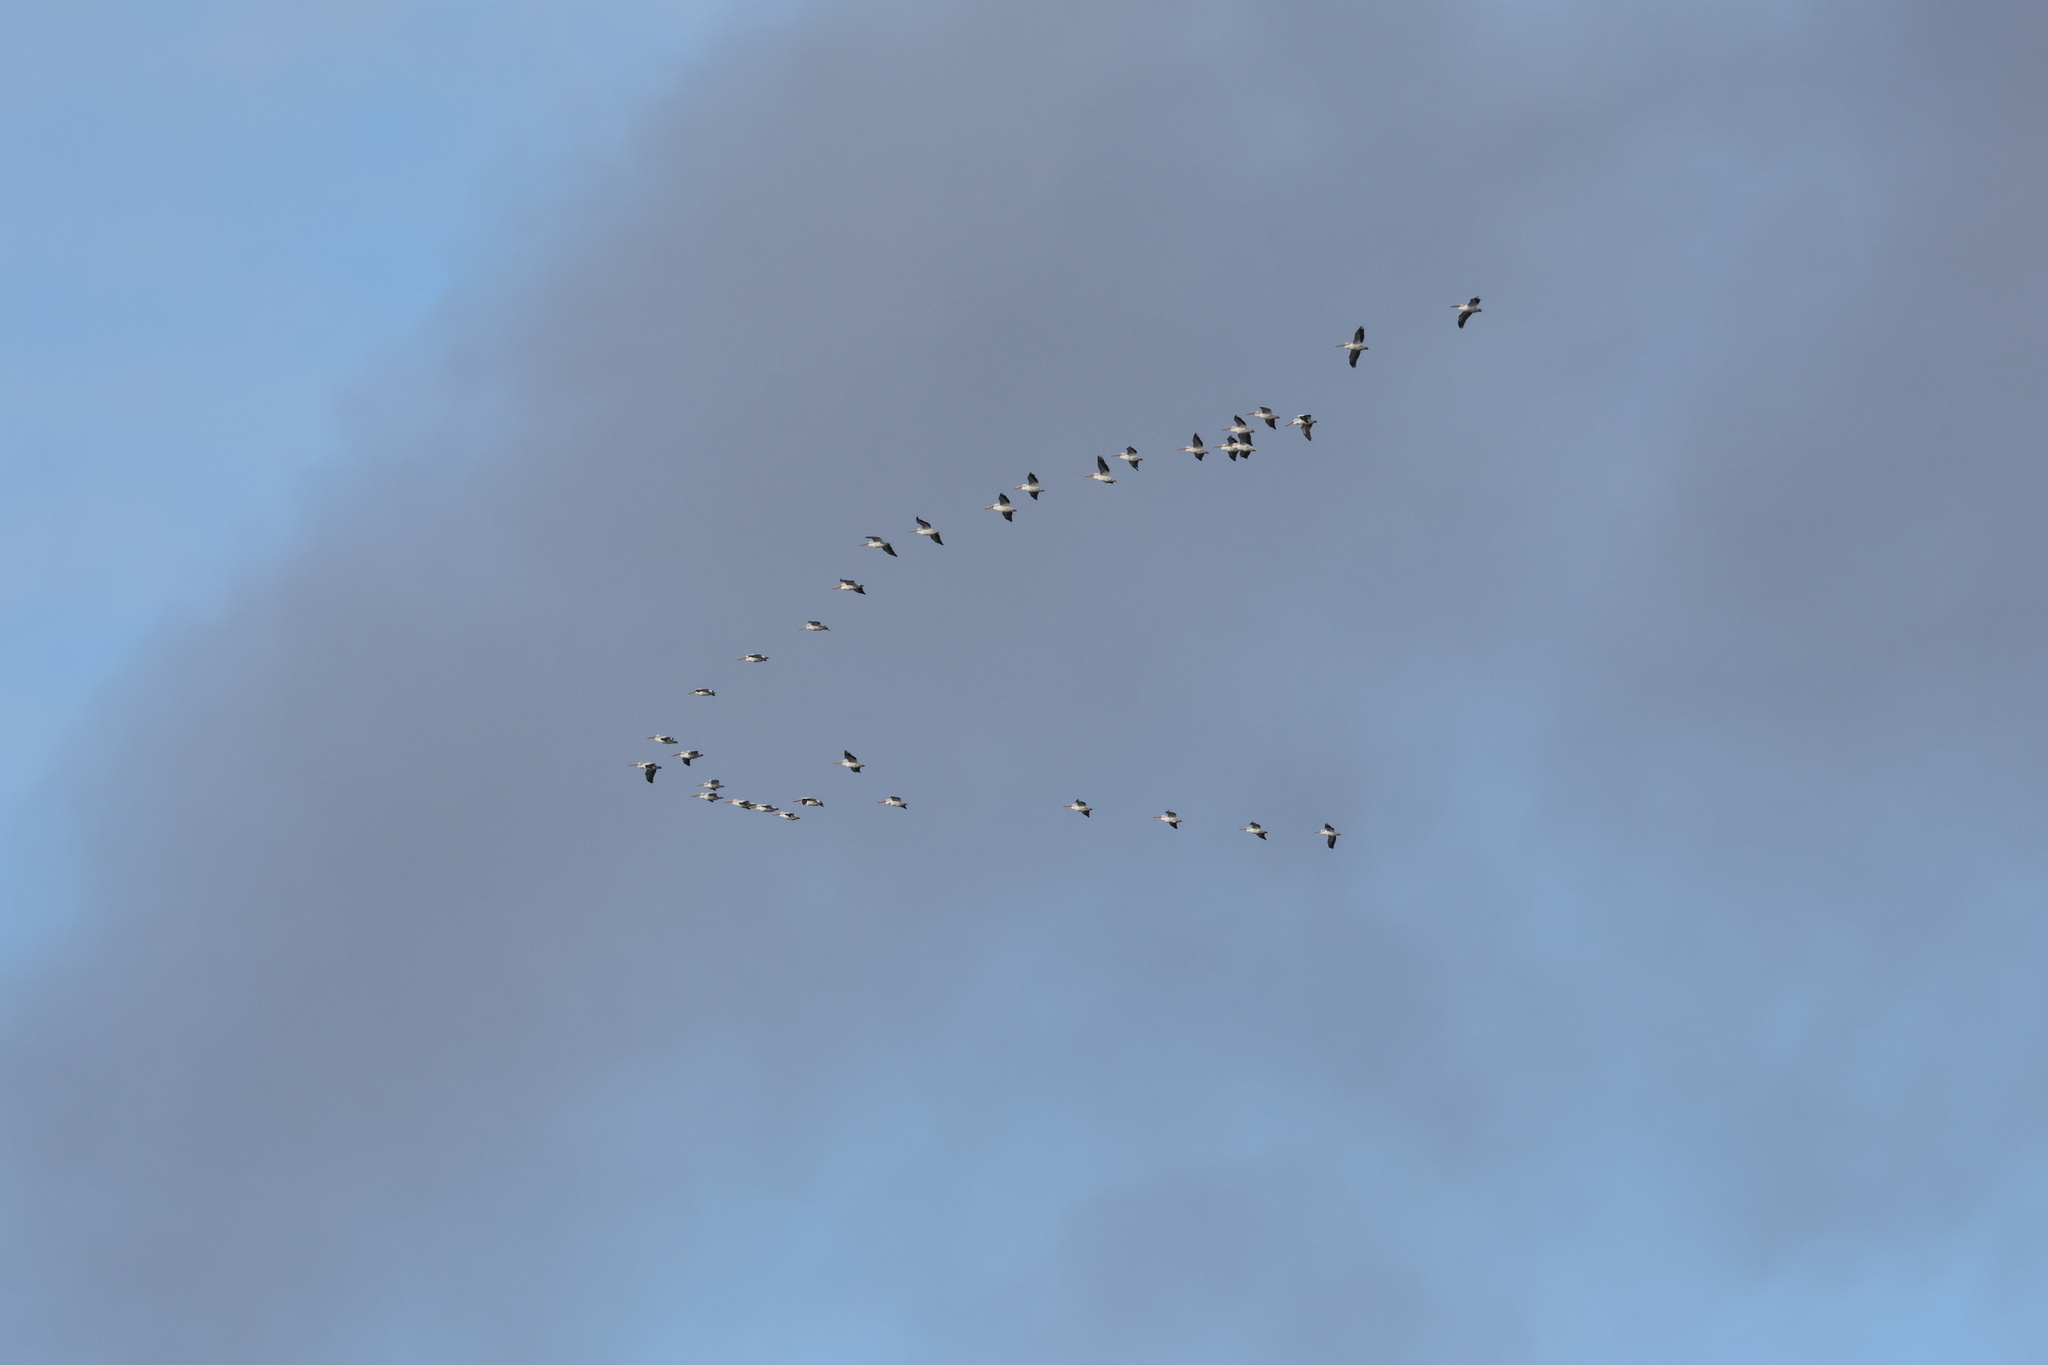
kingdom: Animalia
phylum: Chordata
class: Aves
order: Pelecaniformes
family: Pelecanidae
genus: Pelecanus
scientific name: Pelecanus erythrorhynchos
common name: American white pelican
